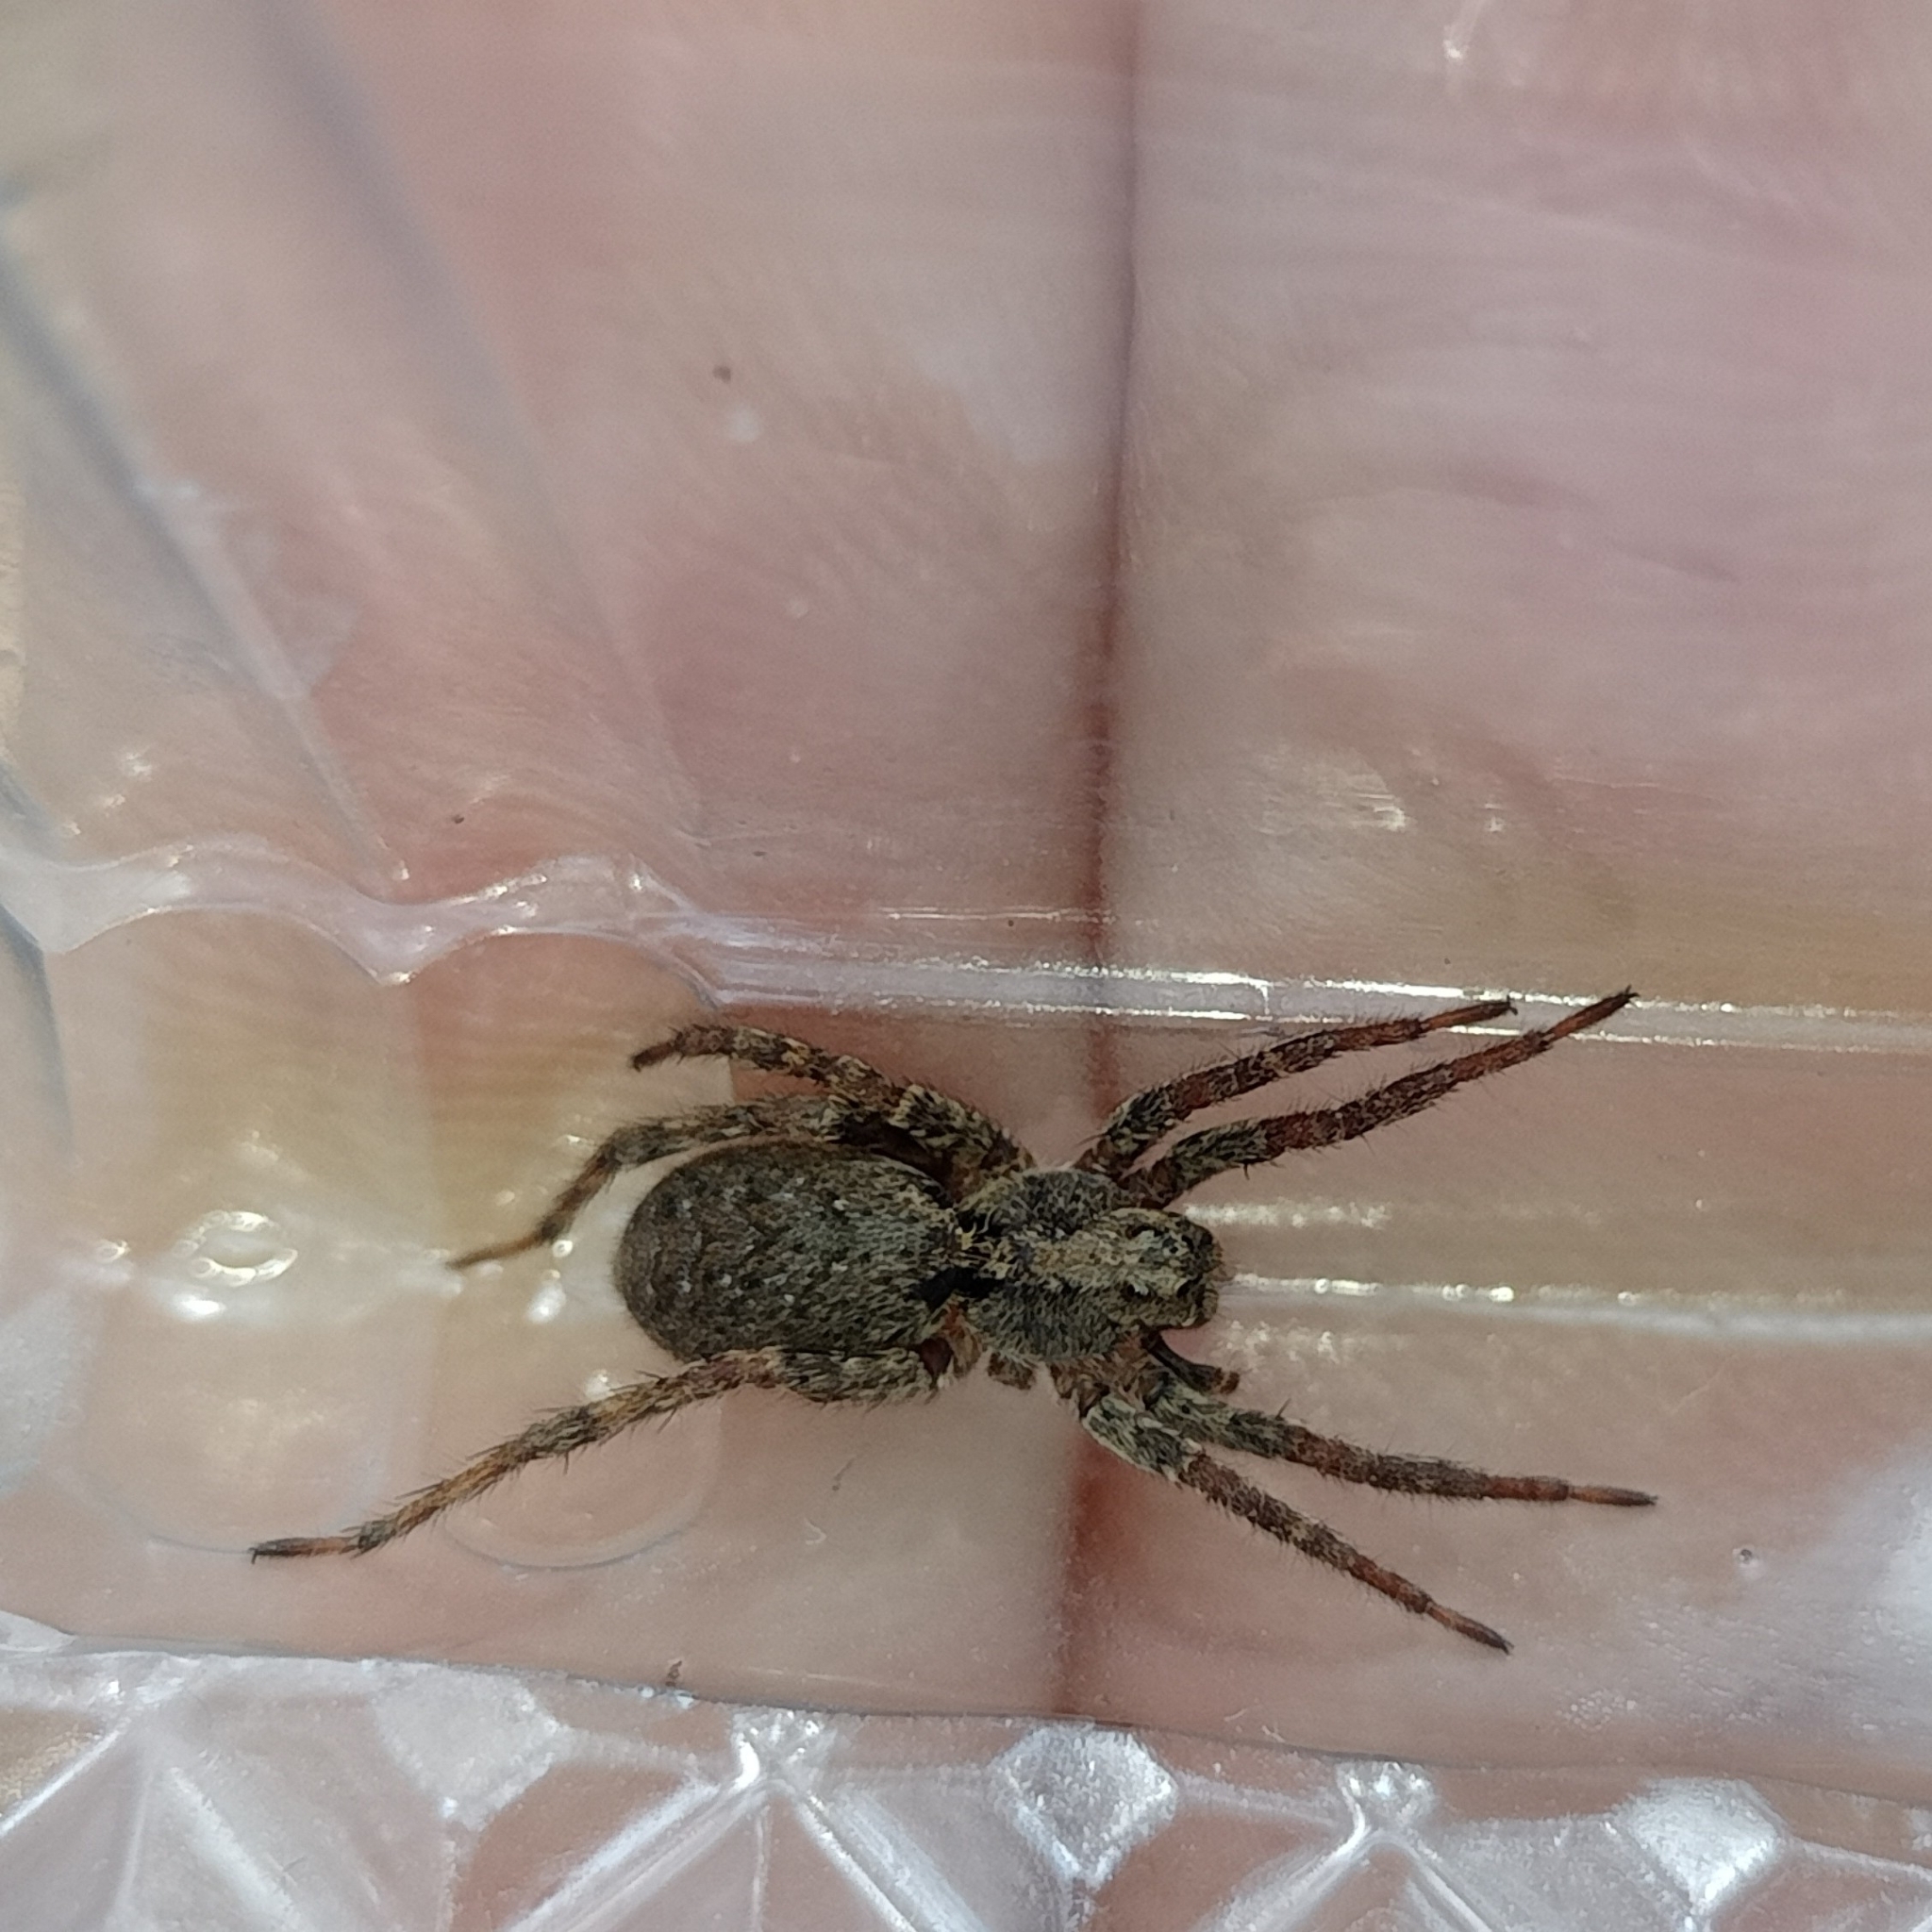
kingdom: Animalia
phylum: Arthropoda
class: Arachnida
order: Araneae
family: Lycosidae
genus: Alopecosa
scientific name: Alopecosa albofasciata
